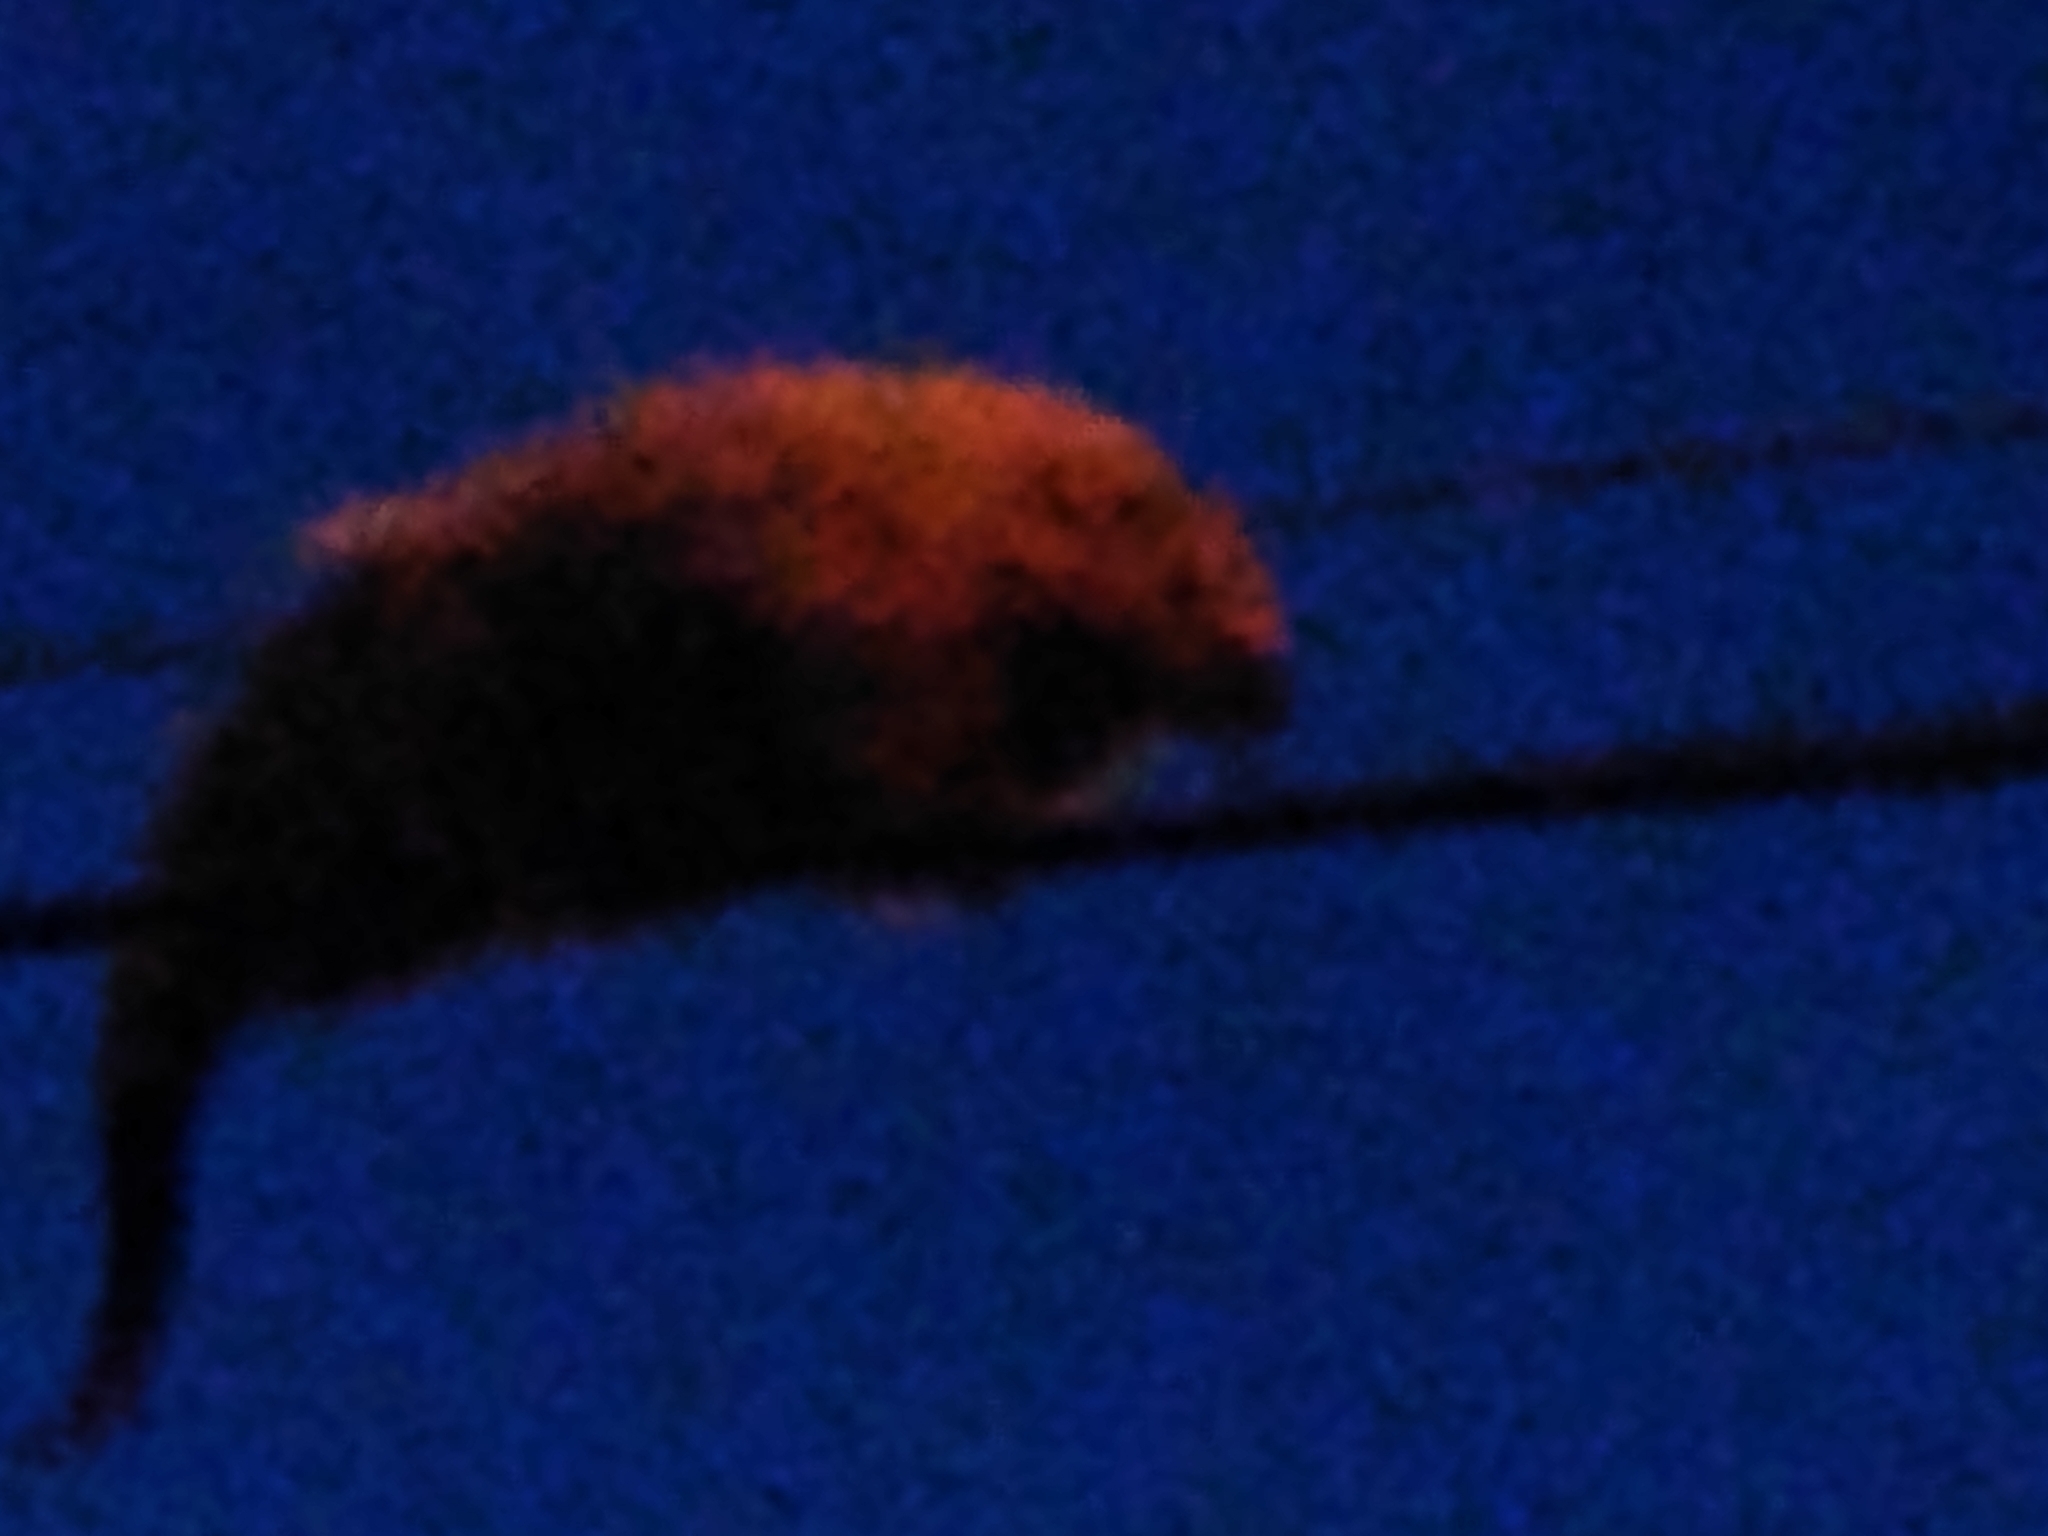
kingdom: Animalia
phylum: Chordata
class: Mammalia
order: Rodentia
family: Erethizontidae
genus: Sphiggurus
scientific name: Sphiggurus spinosus
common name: Paraguaian hairy dwarf porcupine
